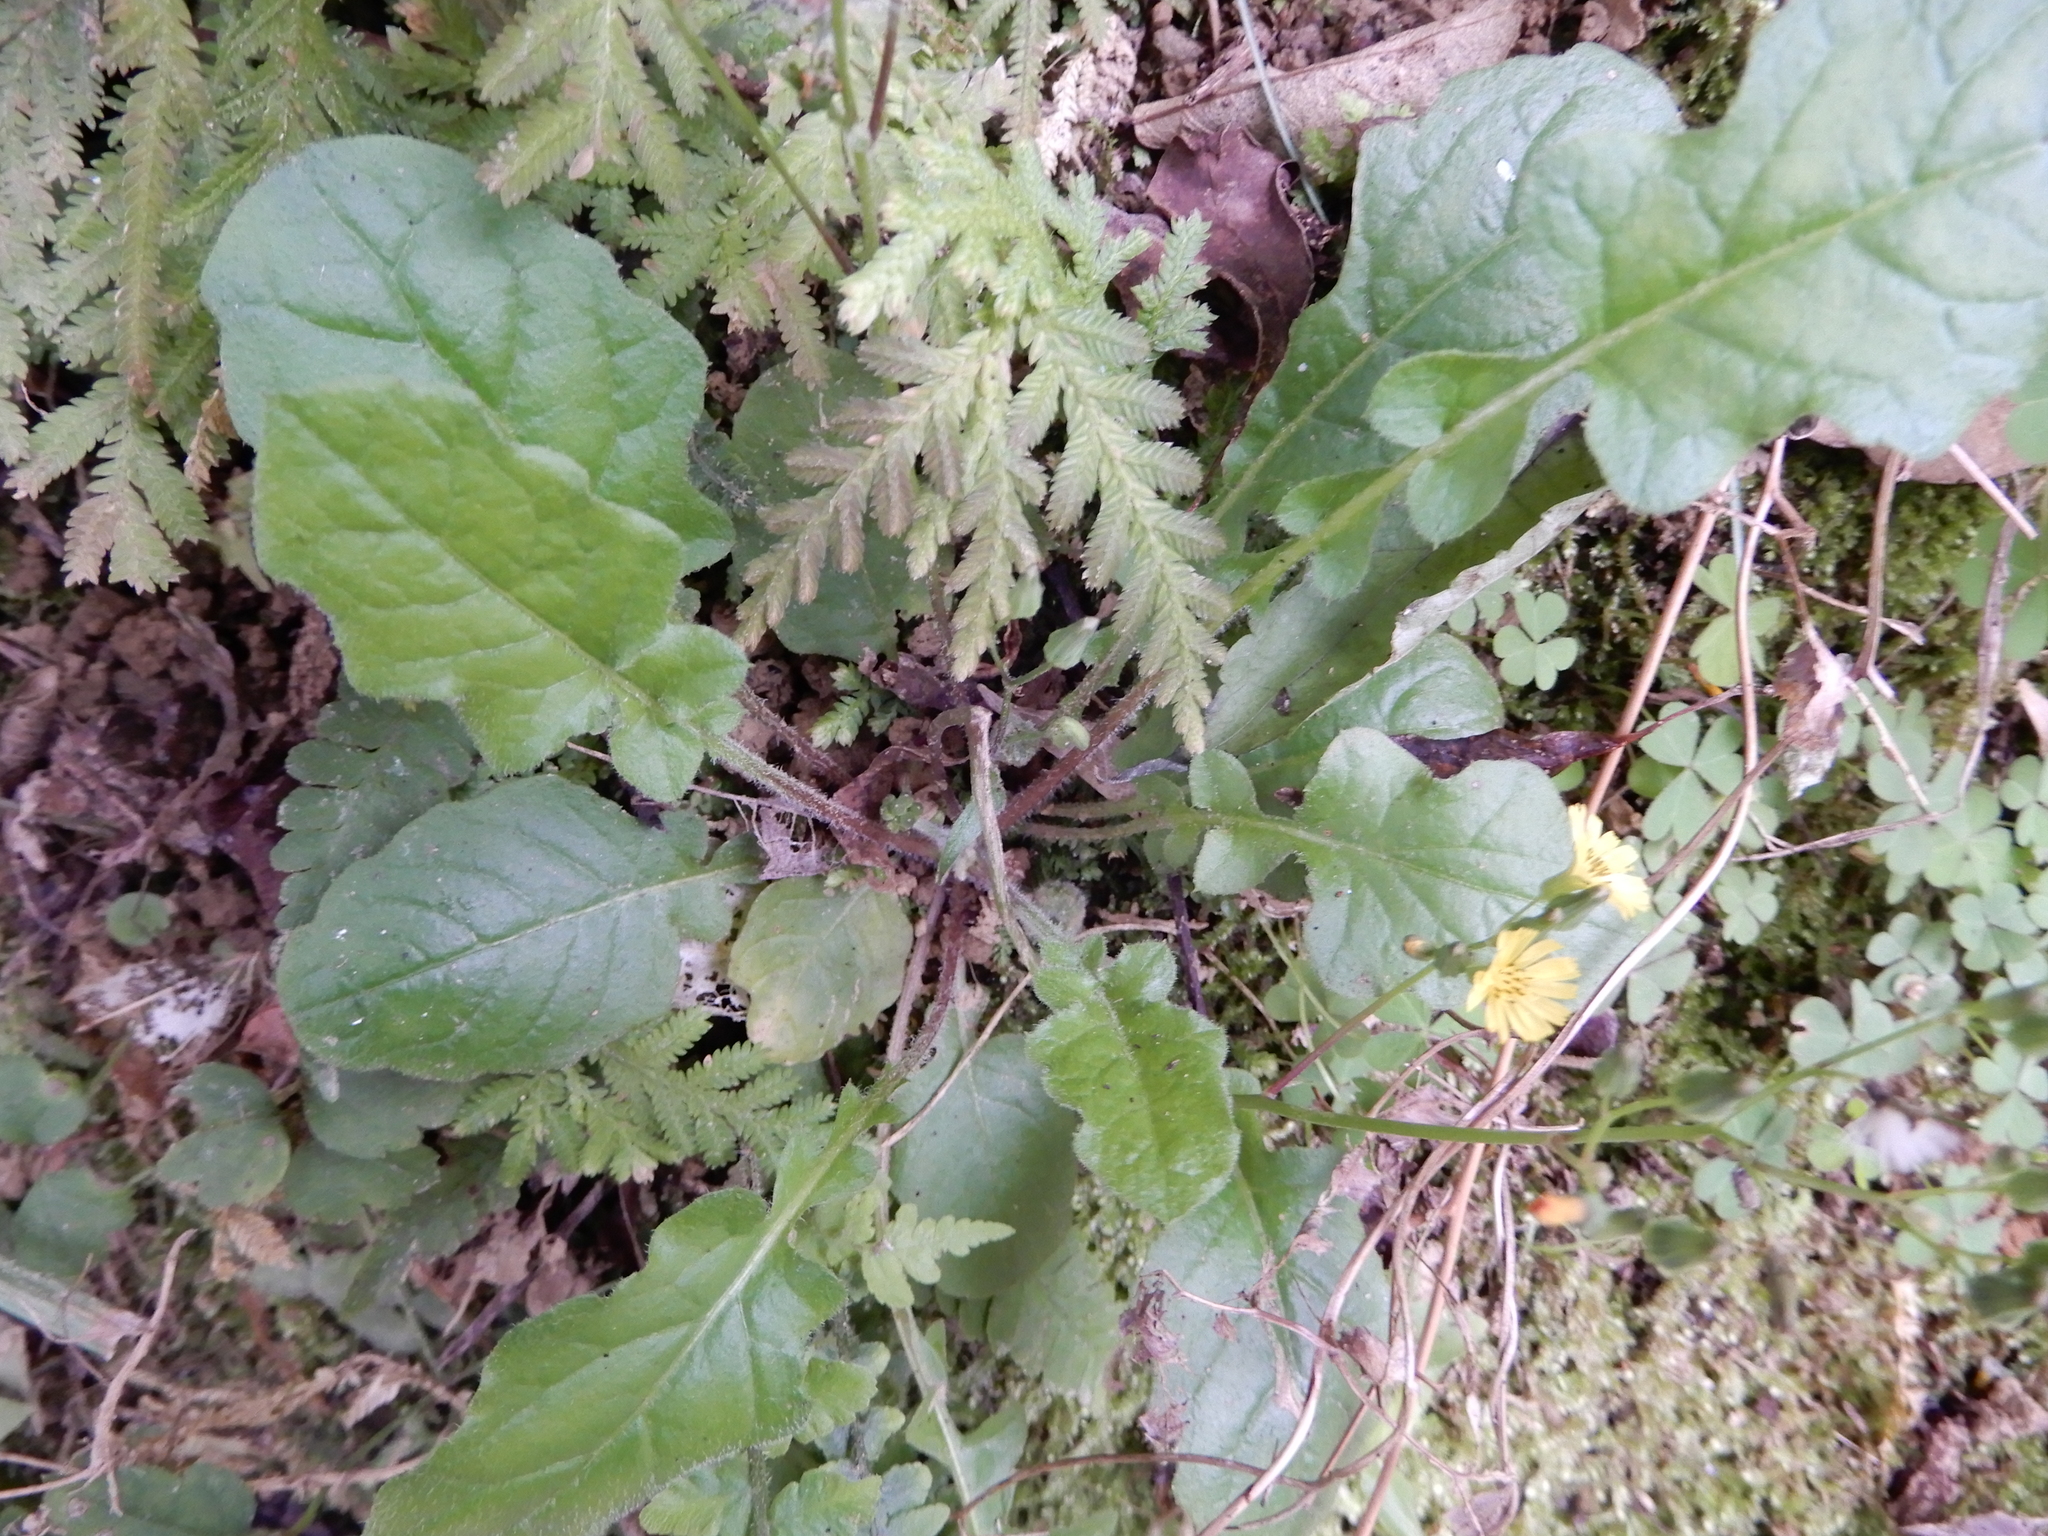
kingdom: Plantae
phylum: Tracheophyta
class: Magnoliopsida
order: Asterales
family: Asteraceae
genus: Youngia
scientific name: Youngia japonica
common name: Oriental false hawksbeard
